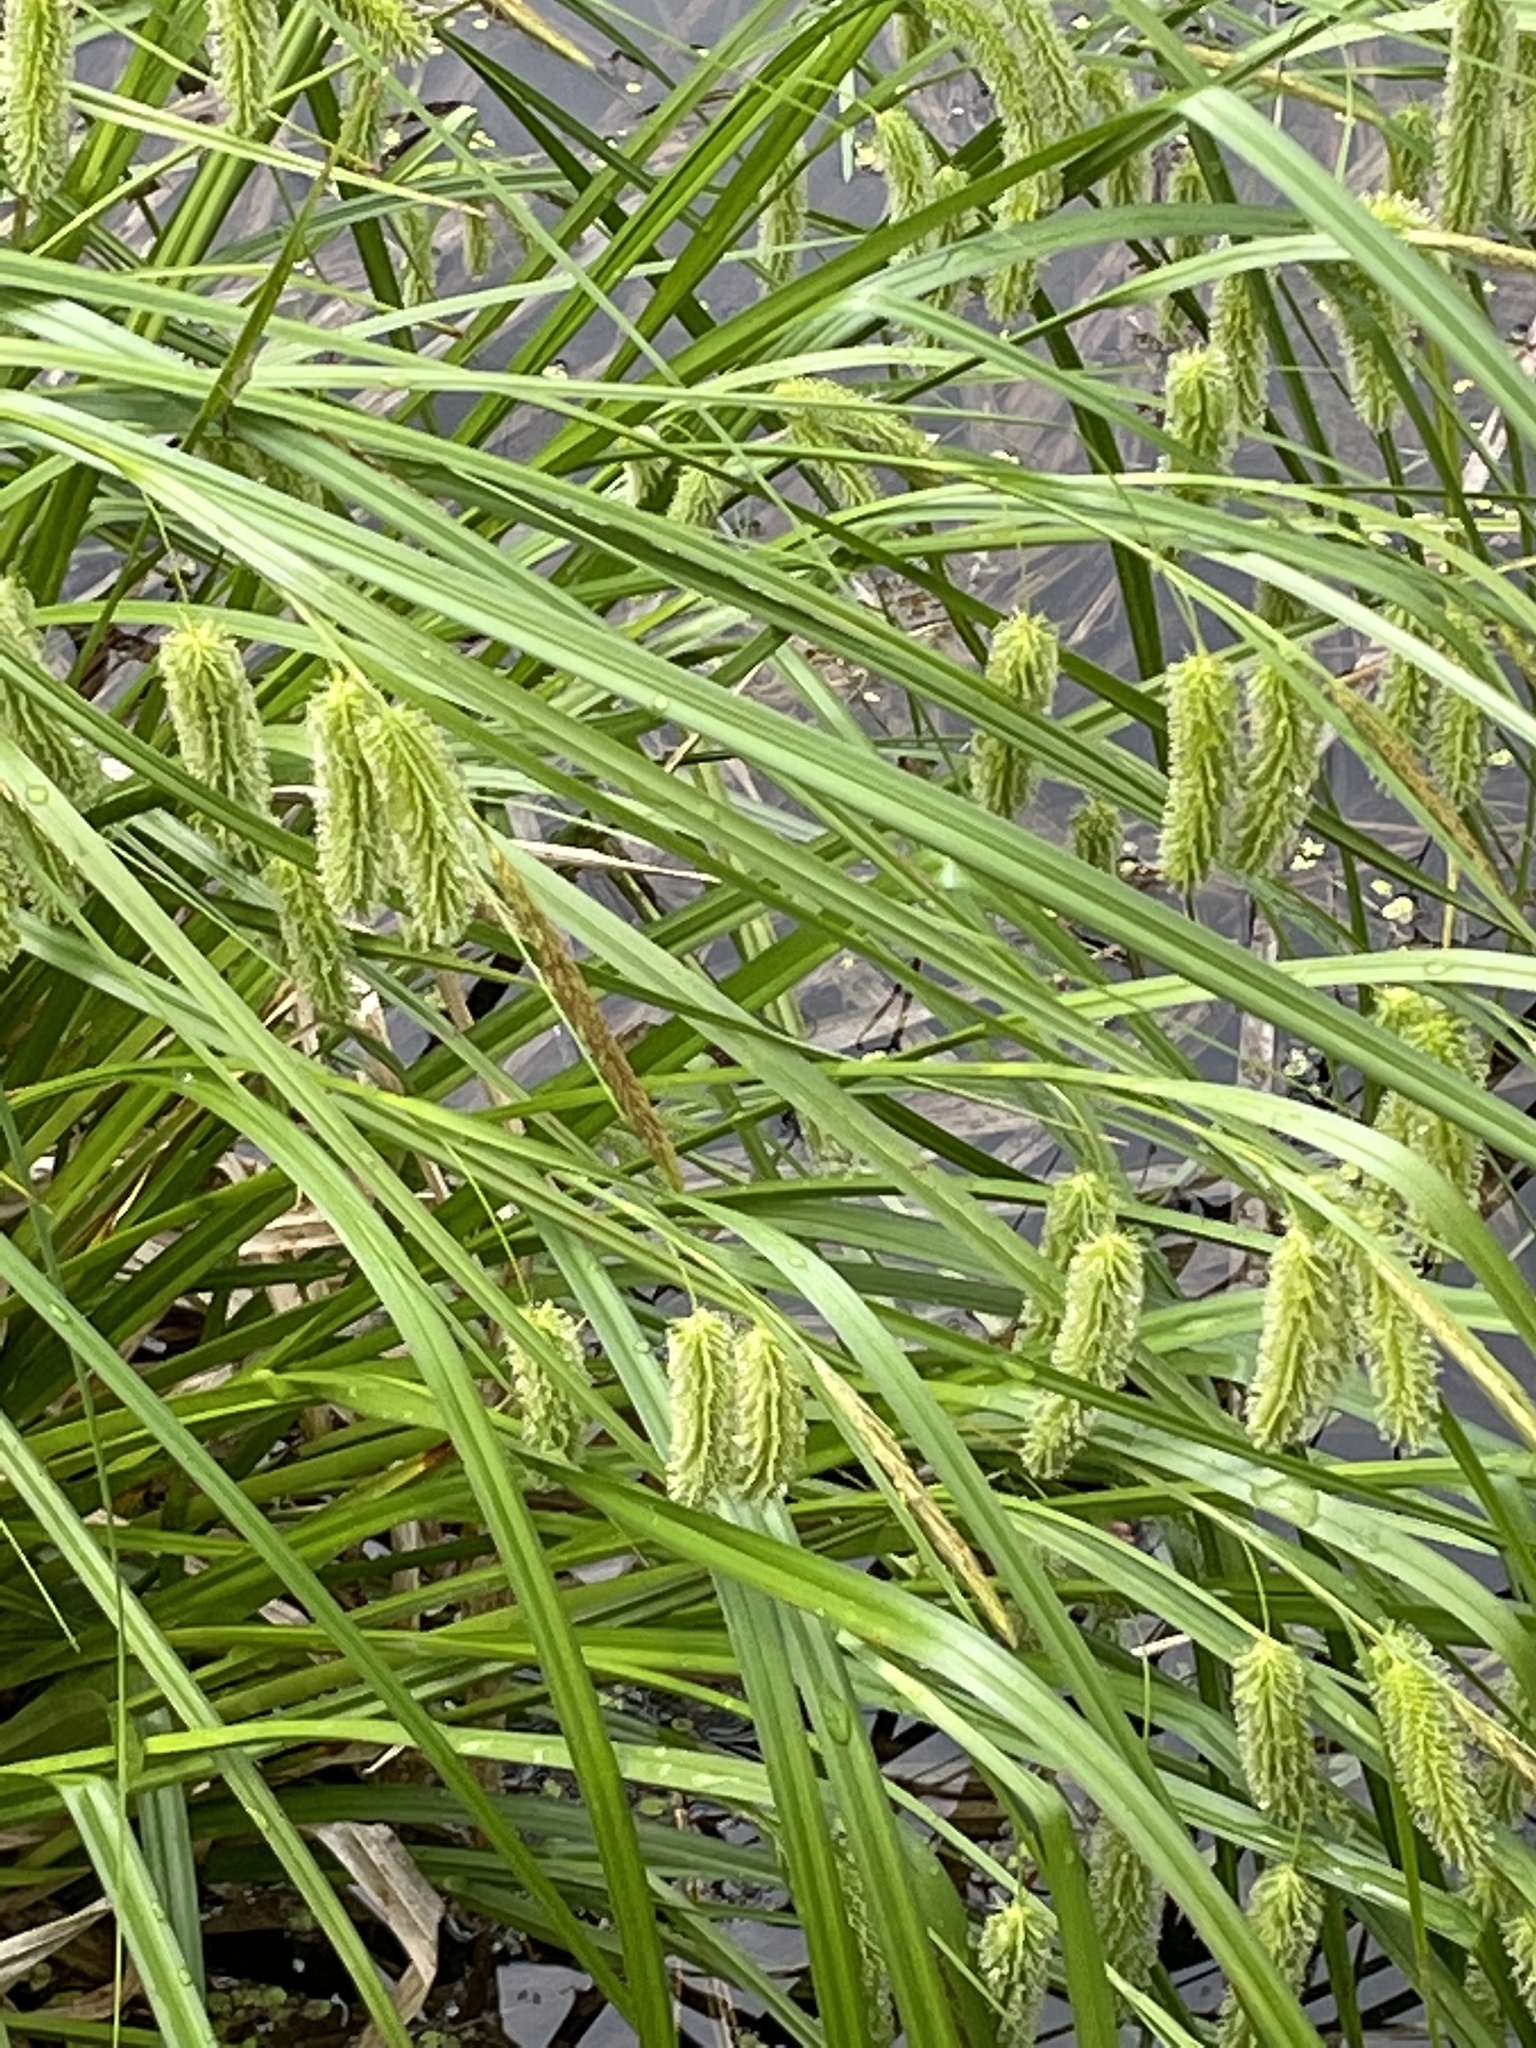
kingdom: Plantae
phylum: Tracheophyta
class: Liliopsida
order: Poales
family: Cyperaceae
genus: Carex
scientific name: Carex pseudocyperus
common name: Cyperus sedge
